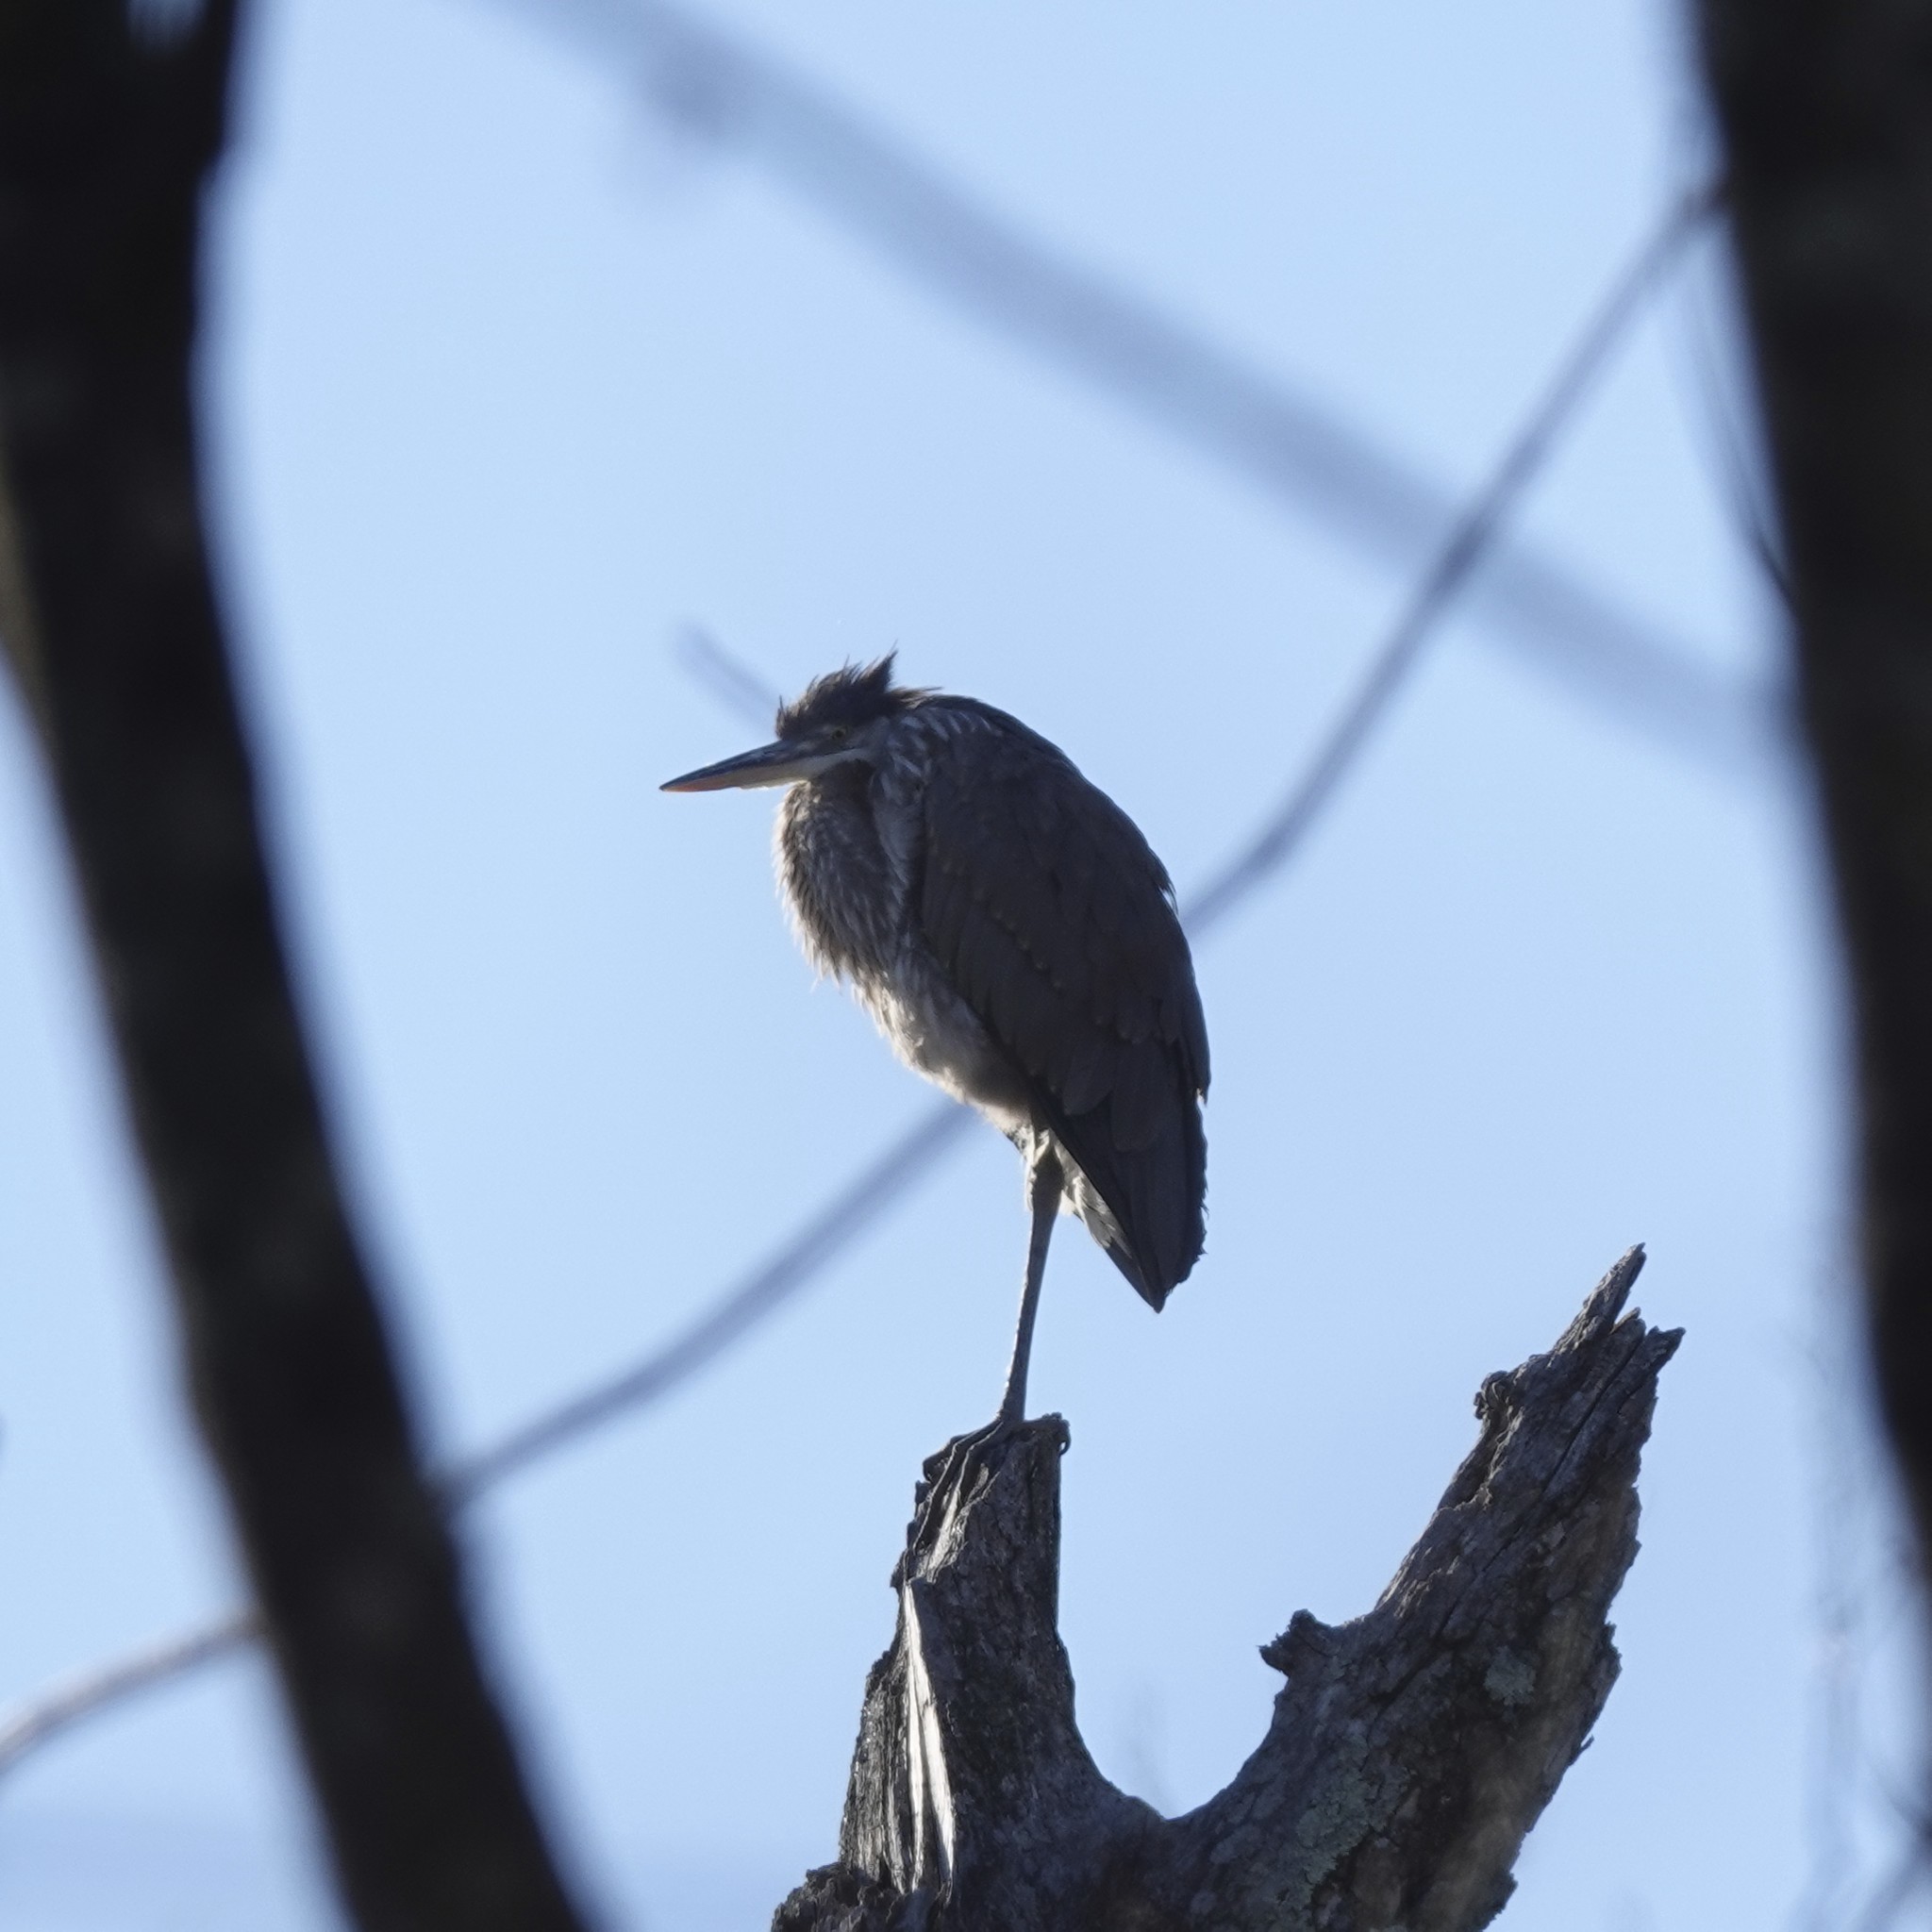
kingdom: Animalia
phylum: Chordata
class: Aves
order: Pelecaniformes
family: Ardeidae
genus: Ardea
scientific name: Ardea herodias
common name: Great blue heron
